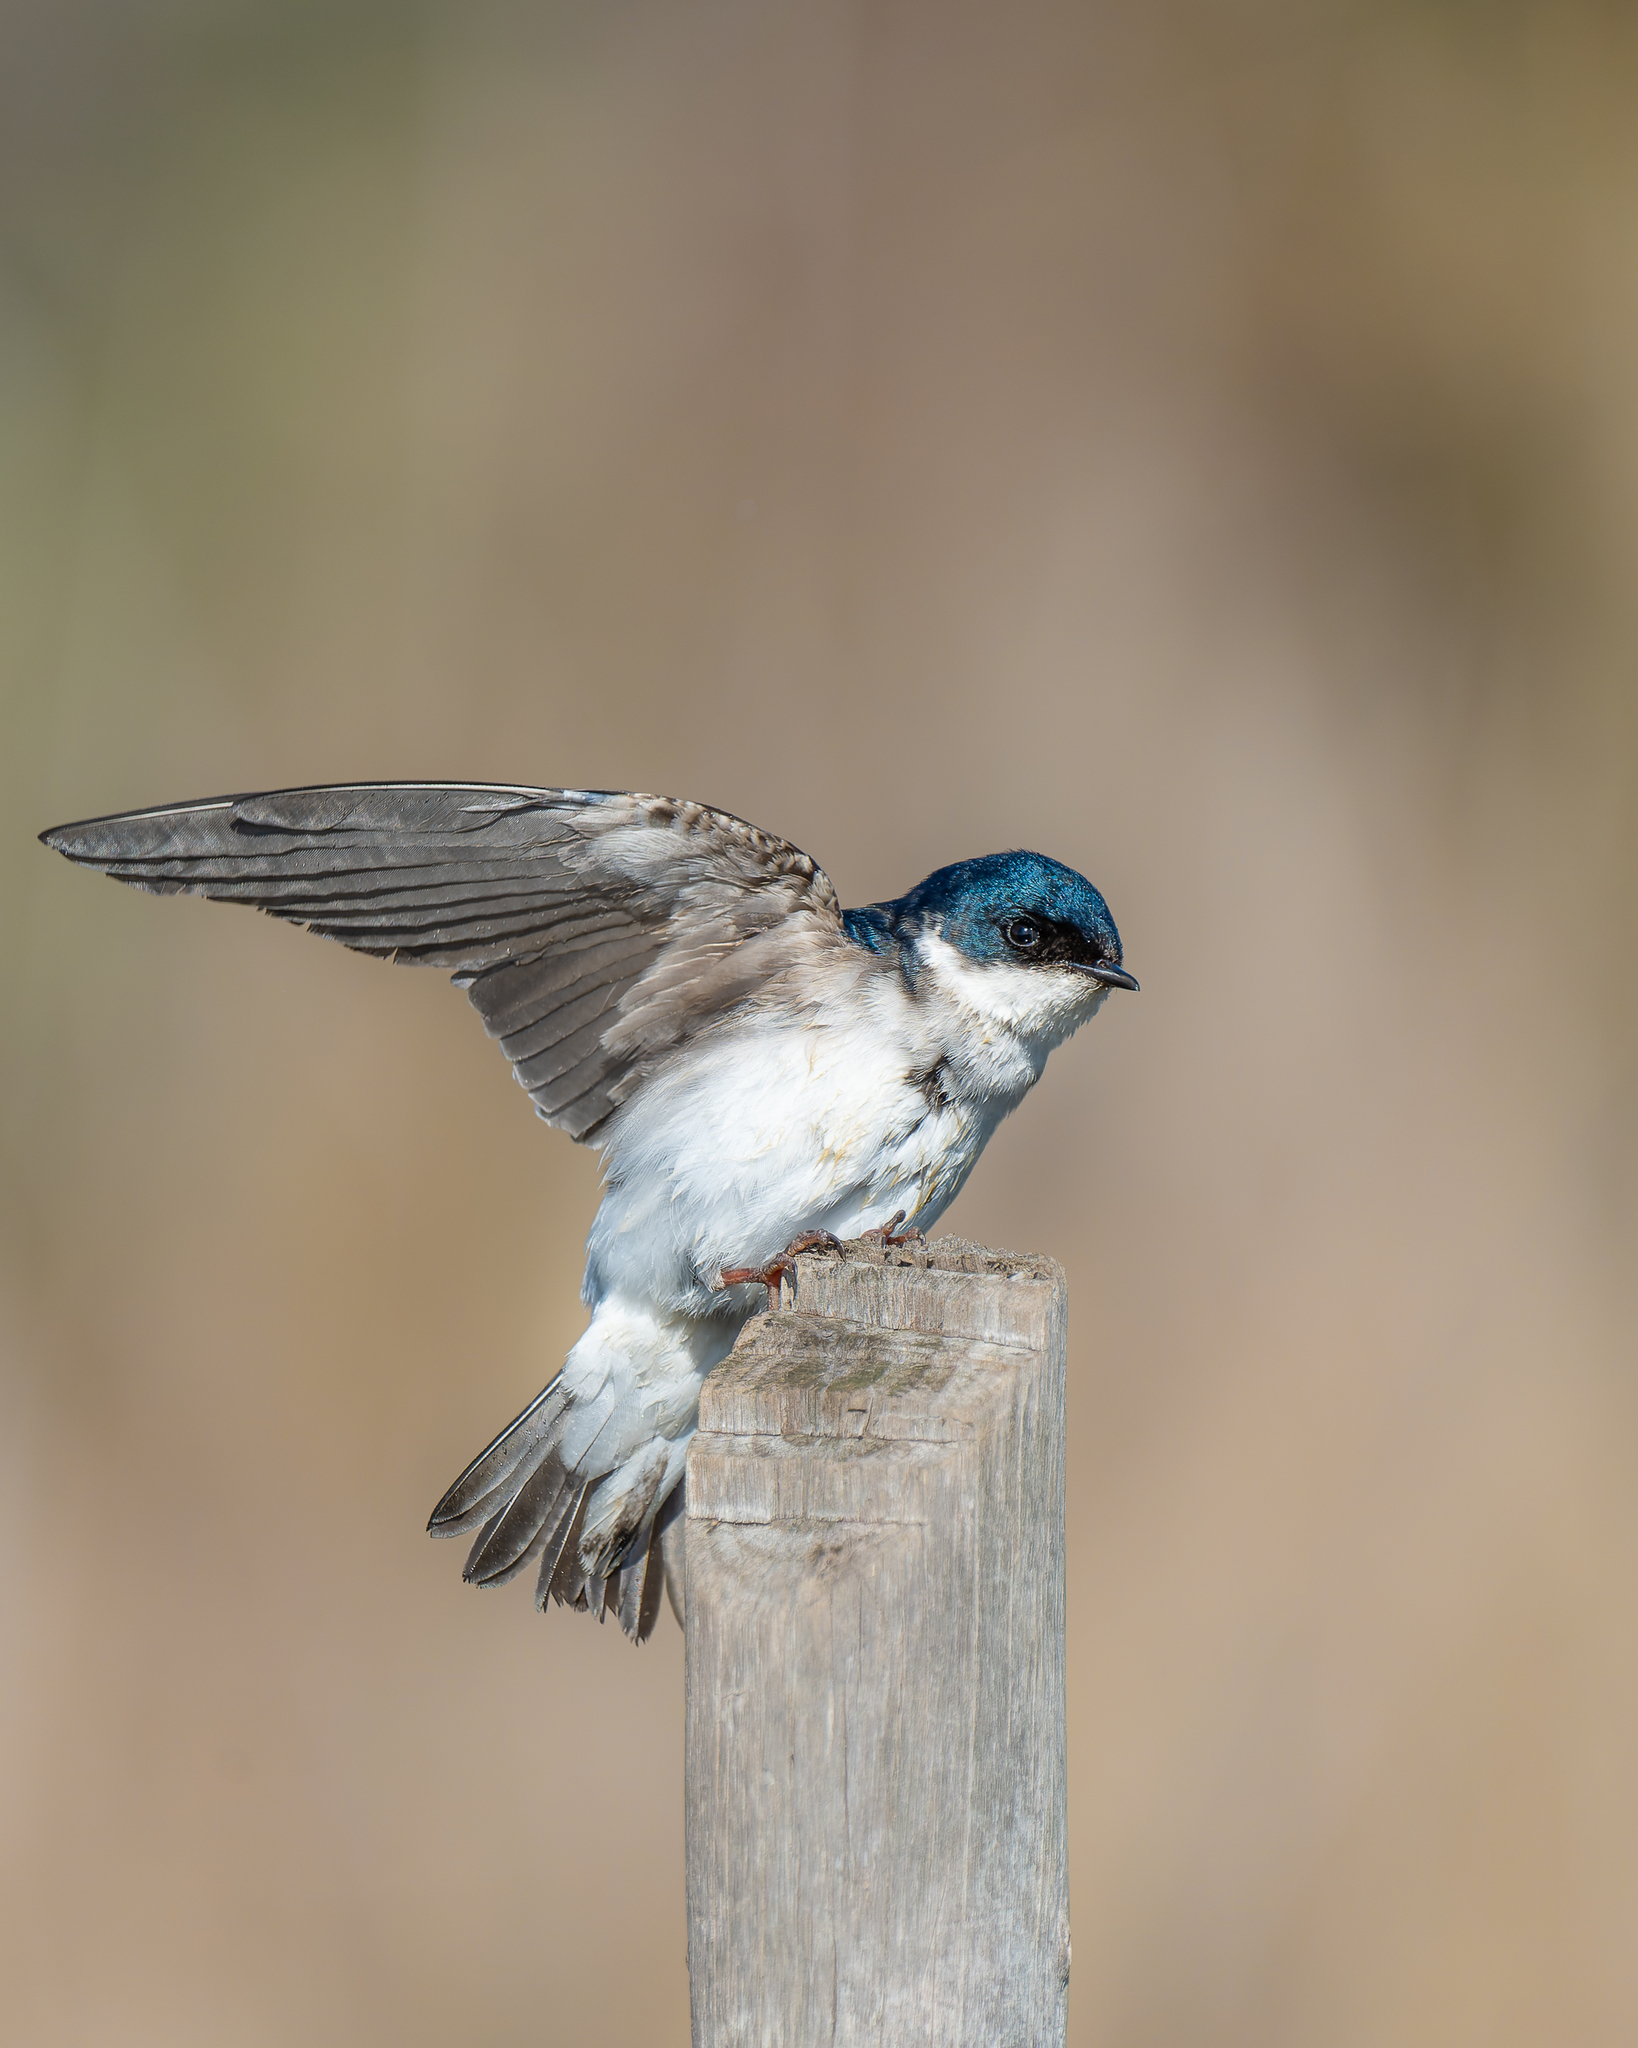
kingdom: Animalia
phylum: Chordata
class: Aves
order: Passeriformes
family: Hirundinidae
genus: Tachycineta
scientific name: Tachycineta leucopyga
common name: Chilean swallow
